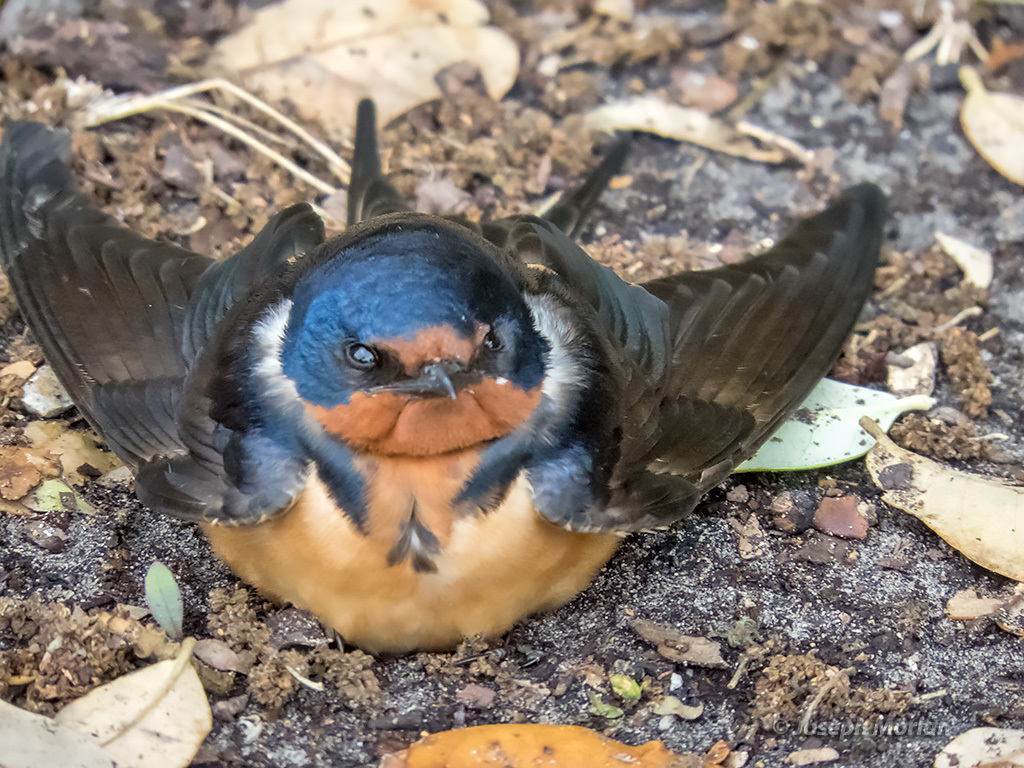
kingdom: Animalia
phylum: Chordata
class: Aves
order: Passeriformes
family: Hirundinidae
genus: Hirundo
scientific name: Hirundo rustica
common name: Barn swallow
